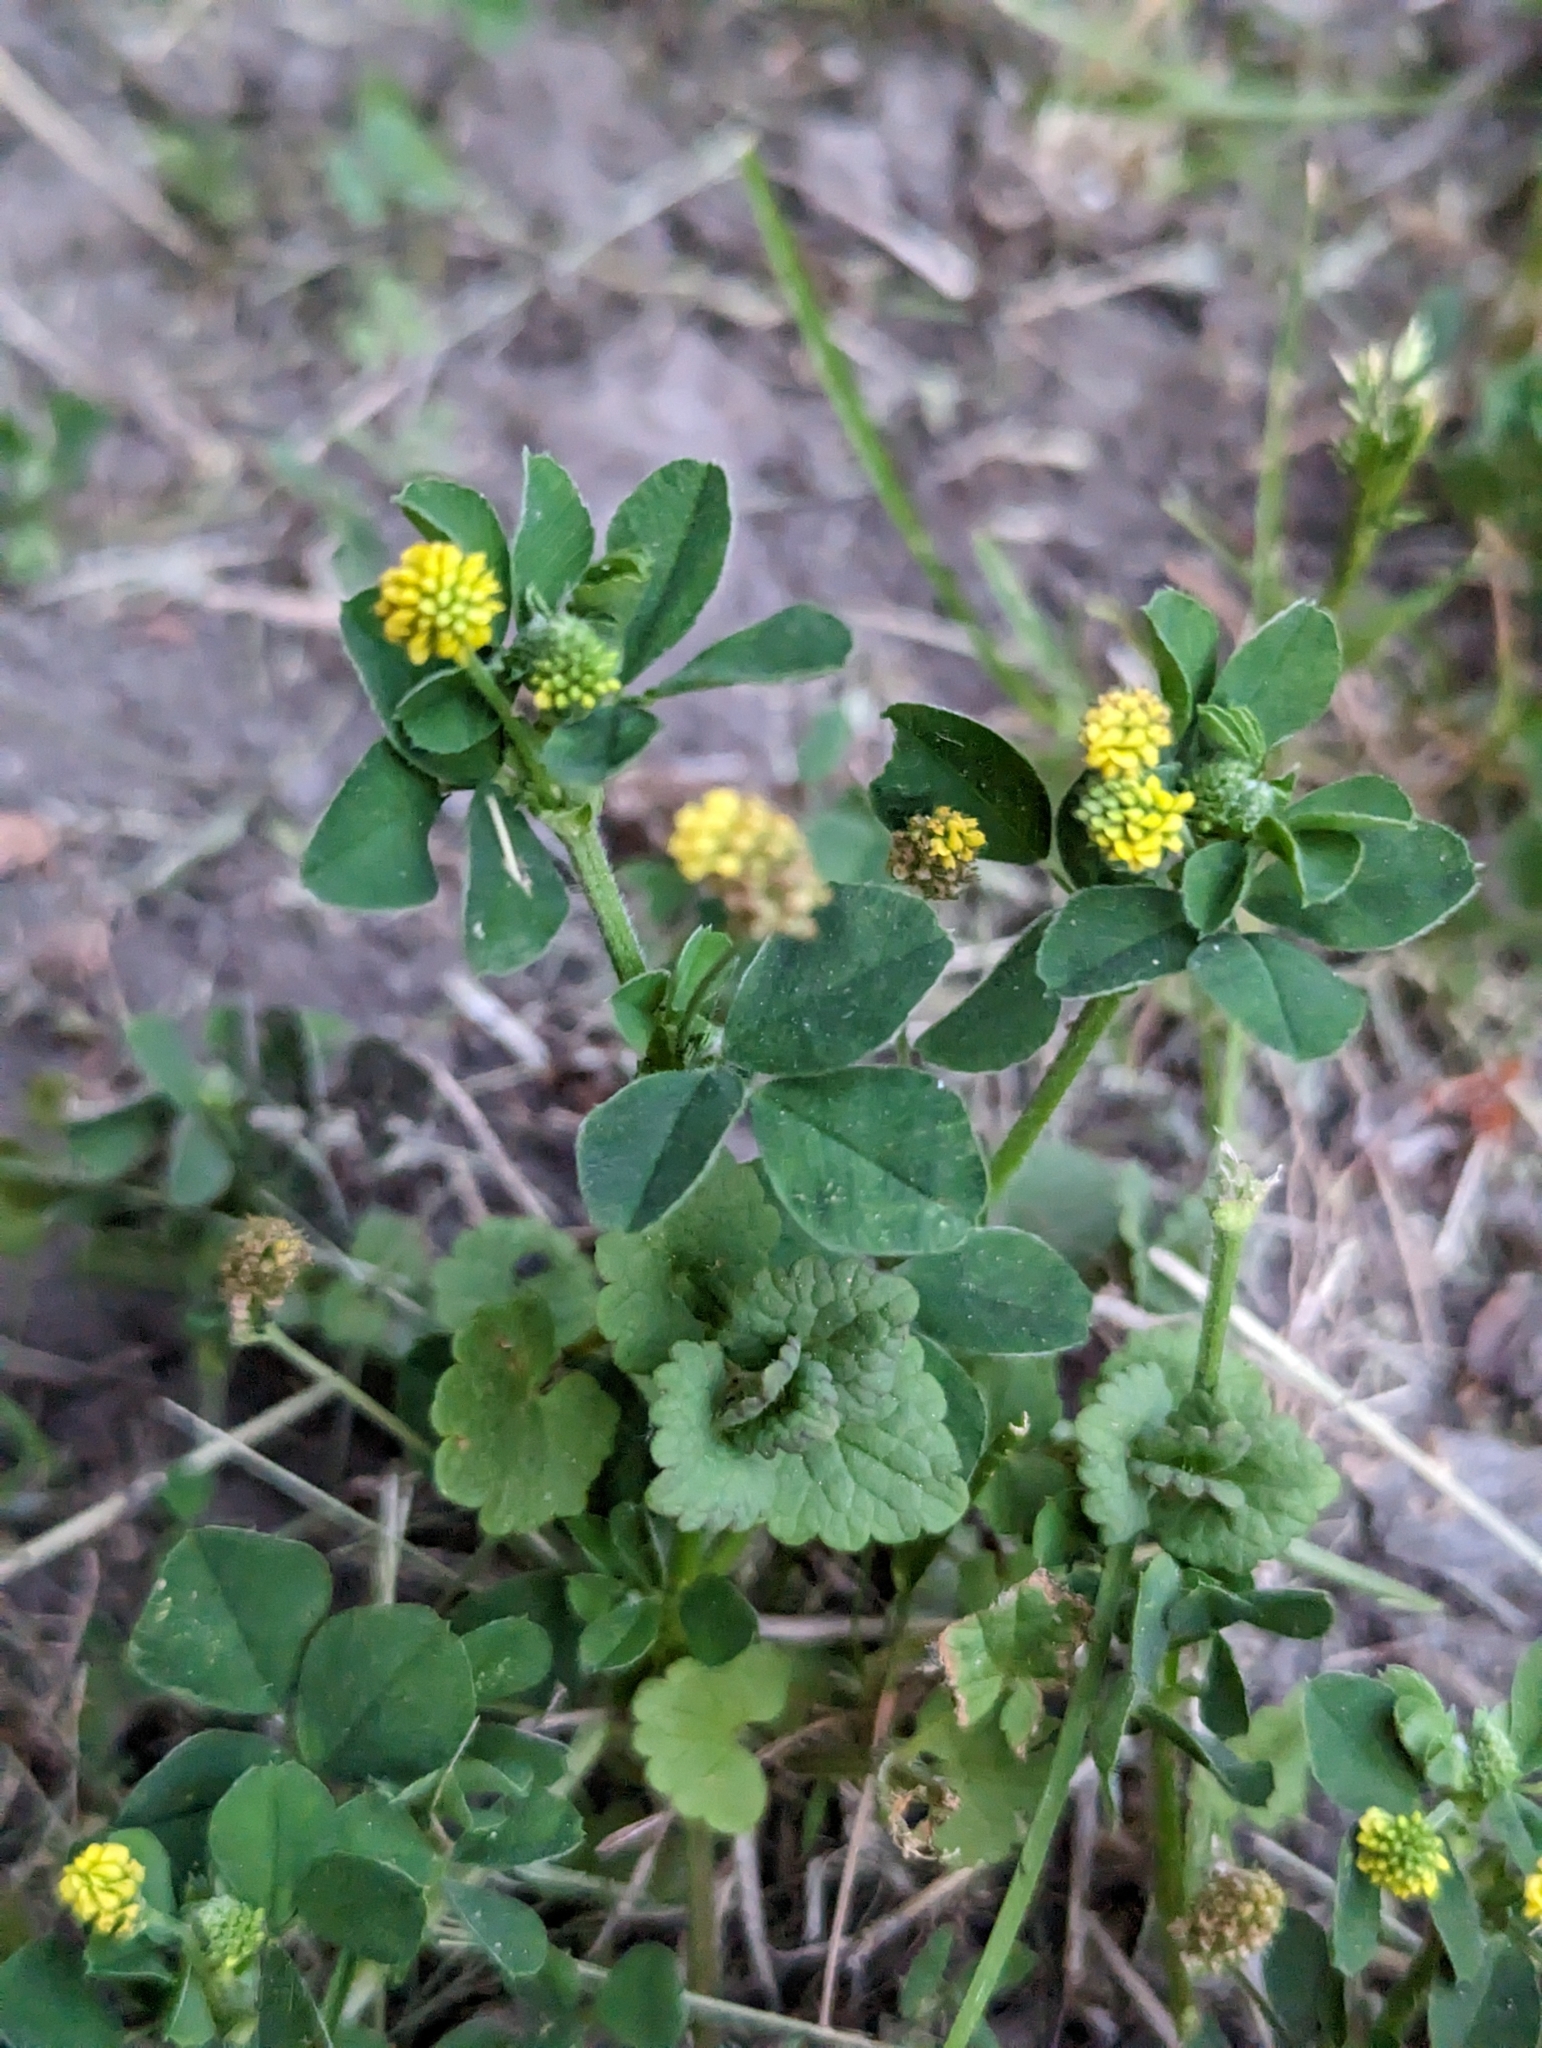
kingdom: Plantae
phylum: Tracheophyta
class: Magnoliopsida
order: Fabales
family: Fabaceae
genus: Medicago
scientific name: Medicago lupulina
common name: Black medick
